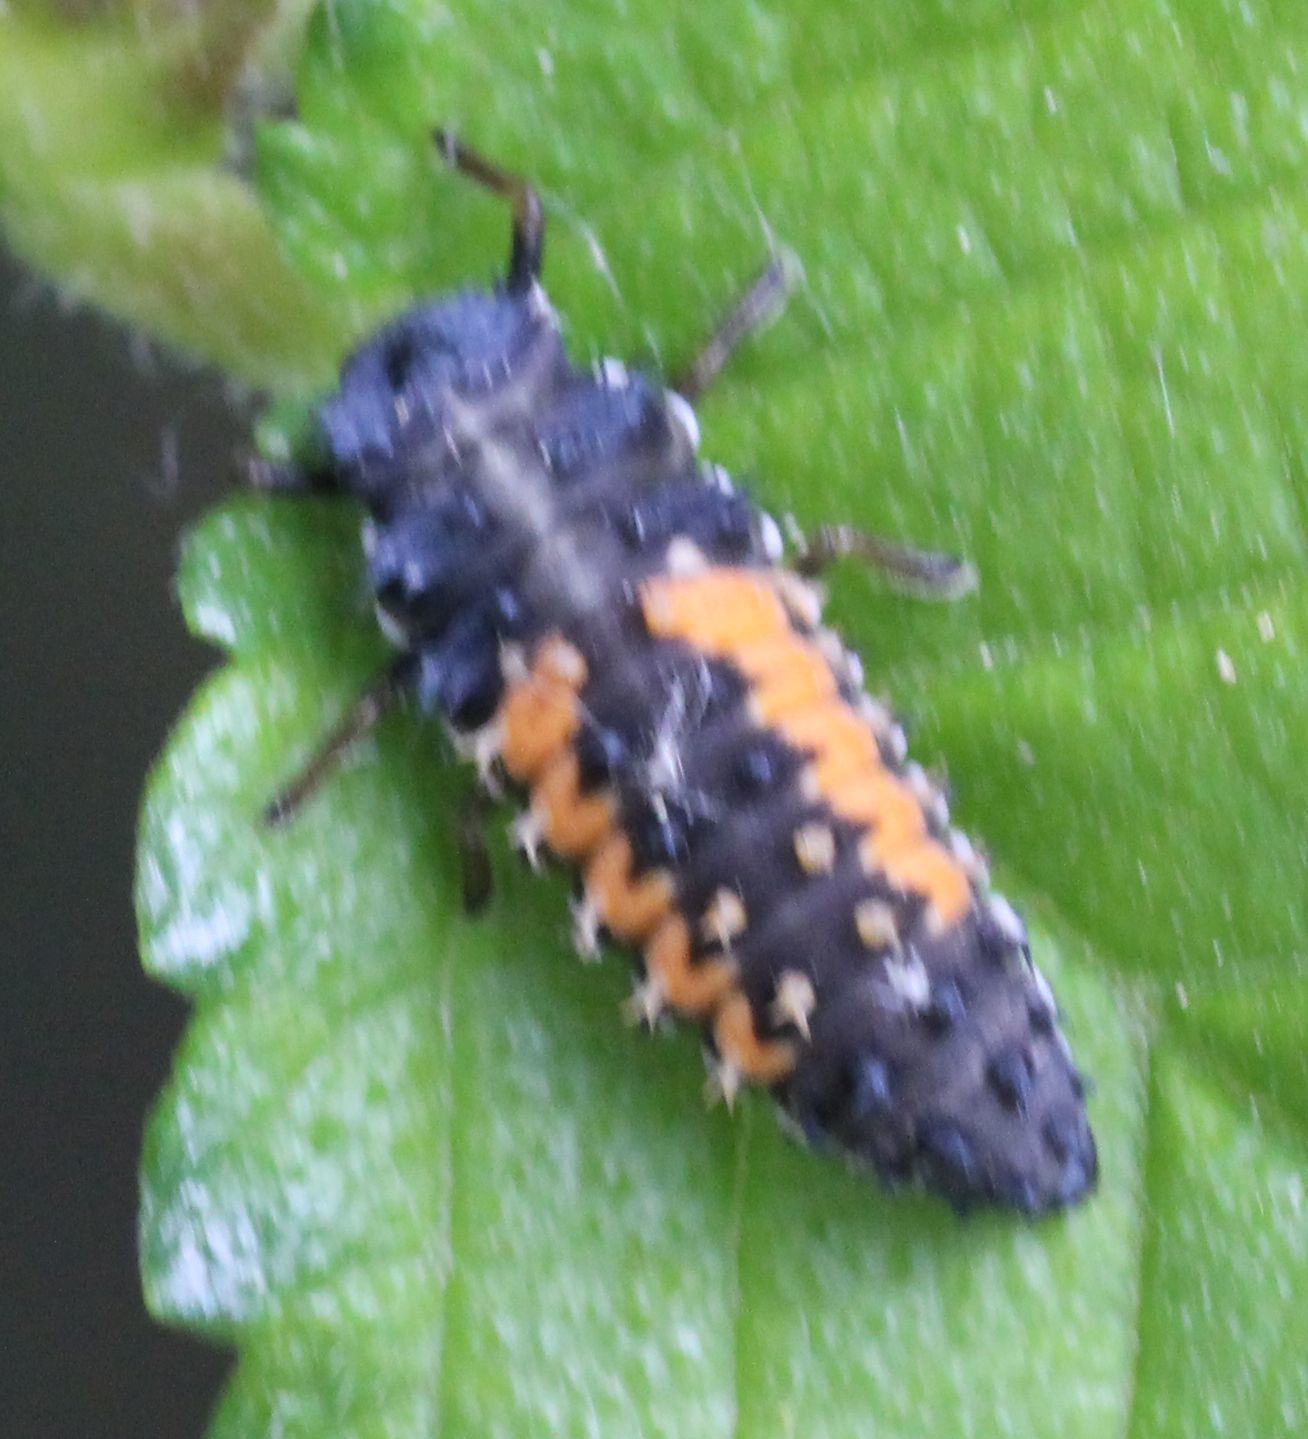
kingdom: Animalia
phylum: Arthropoda
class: Insecta
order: Coleoptera
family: Coccinellidae
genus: Harmonia
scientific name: Harmonia axyridis
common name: Harlequin ladybird
